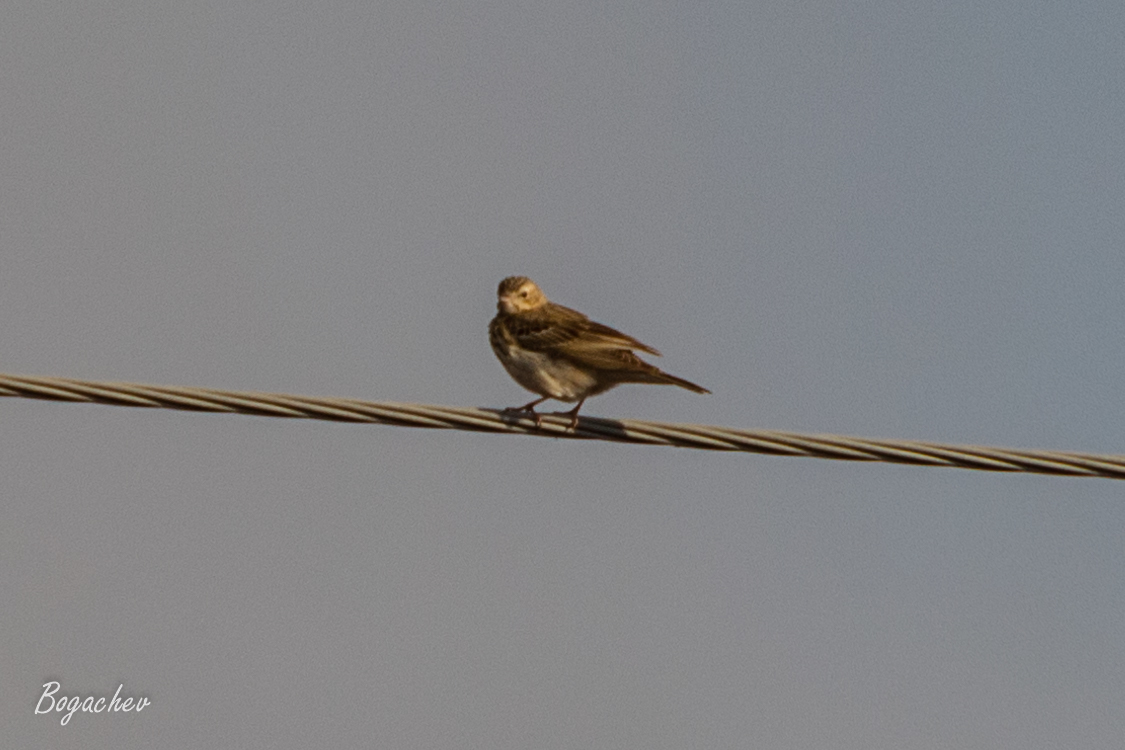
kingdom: Animalia
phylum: Chordata
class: Aves
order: Passeriformes
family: Motacillidae
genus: Anthus
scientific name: Anthus trivialis
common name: Tree pipit
